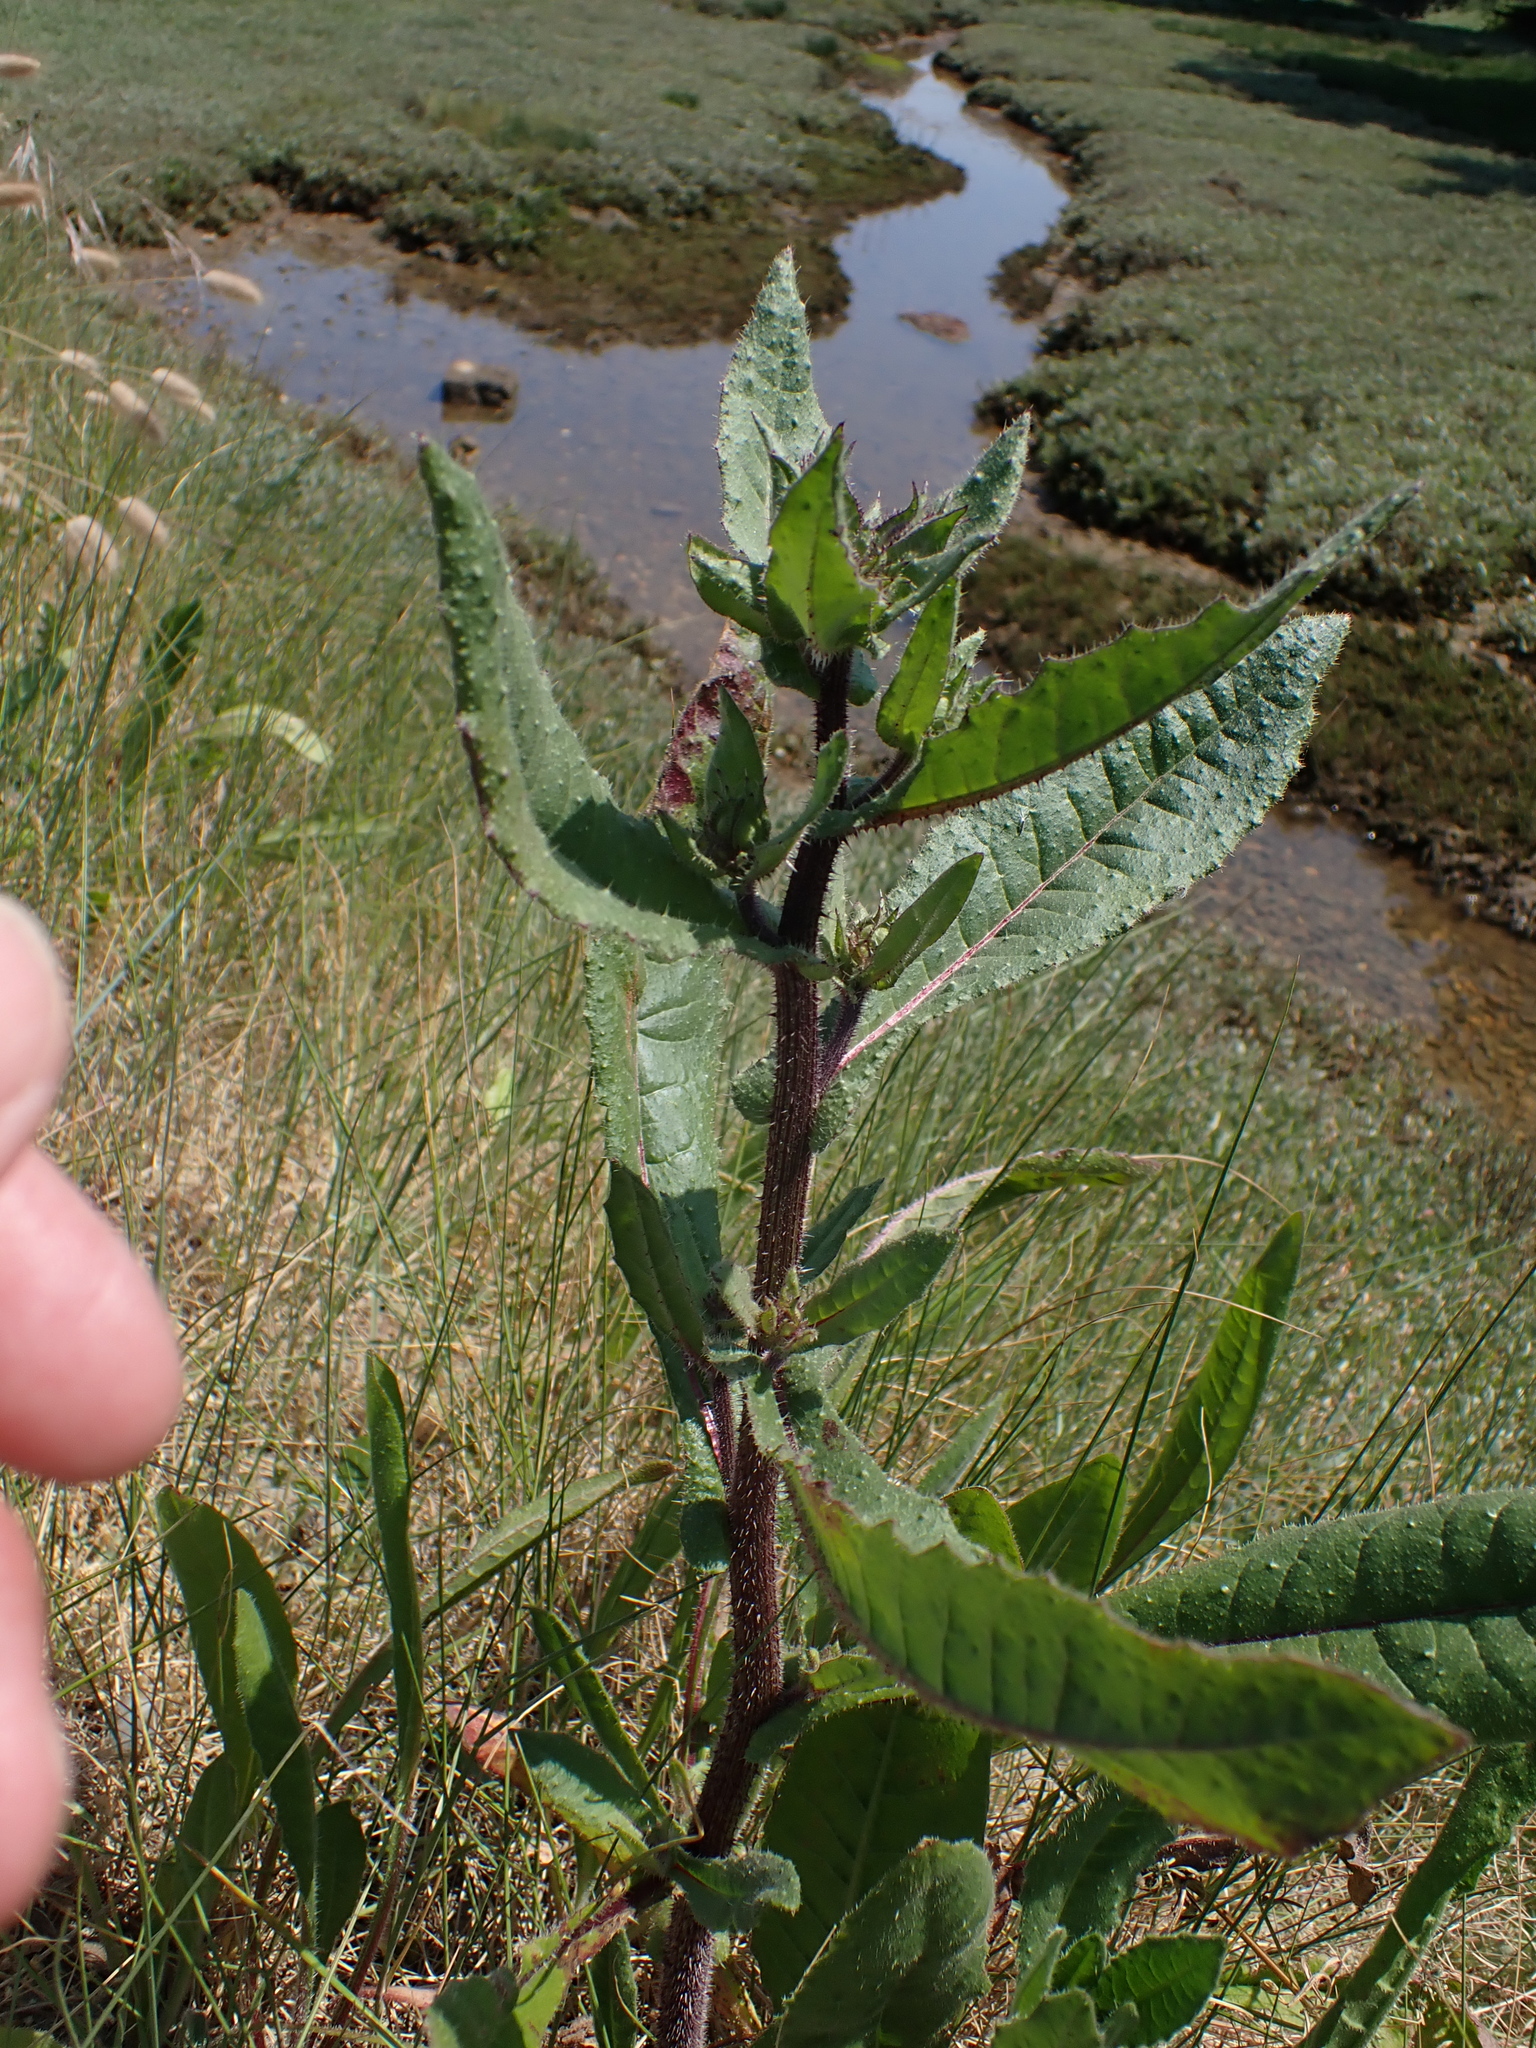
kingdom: Plantae
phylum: Tracheophyta
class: Magnoliopsida
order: Asterales
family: Asteraceae
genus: Helminthotheca
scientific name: Helminthotheca echioides
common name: Ox-tongue
